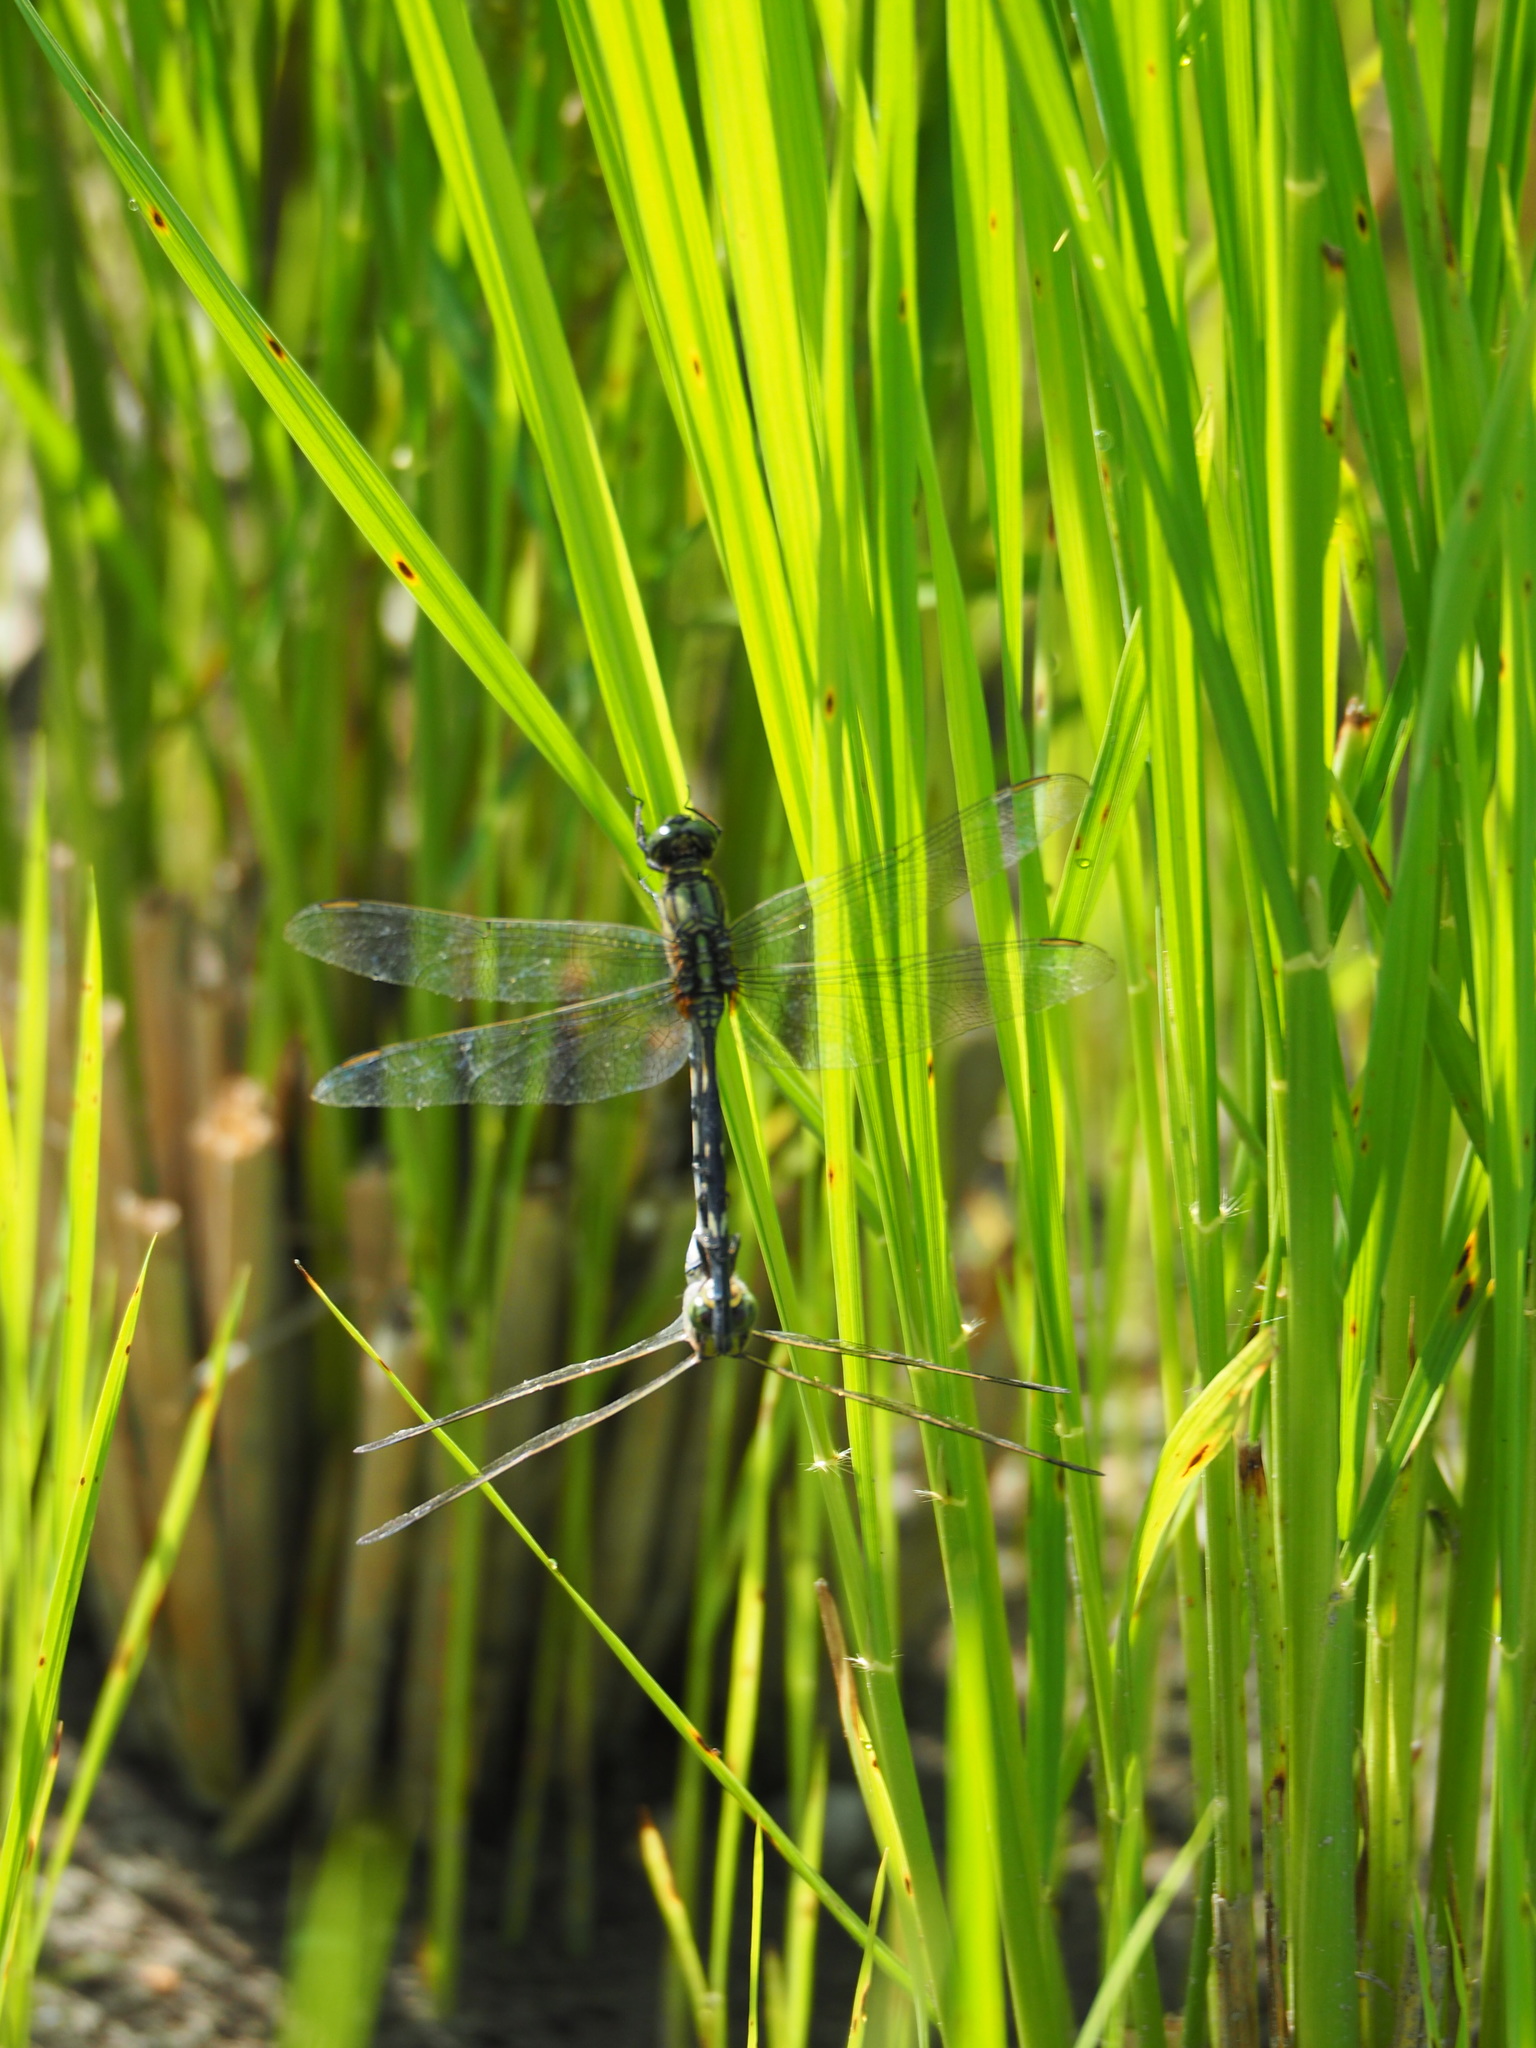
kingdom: Animalia
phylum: Arthropoda
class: Insecta
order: Odonata
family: Libellulidae
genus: Orthetrum
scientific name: Orthetrum sabina
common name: Slender skimmer
